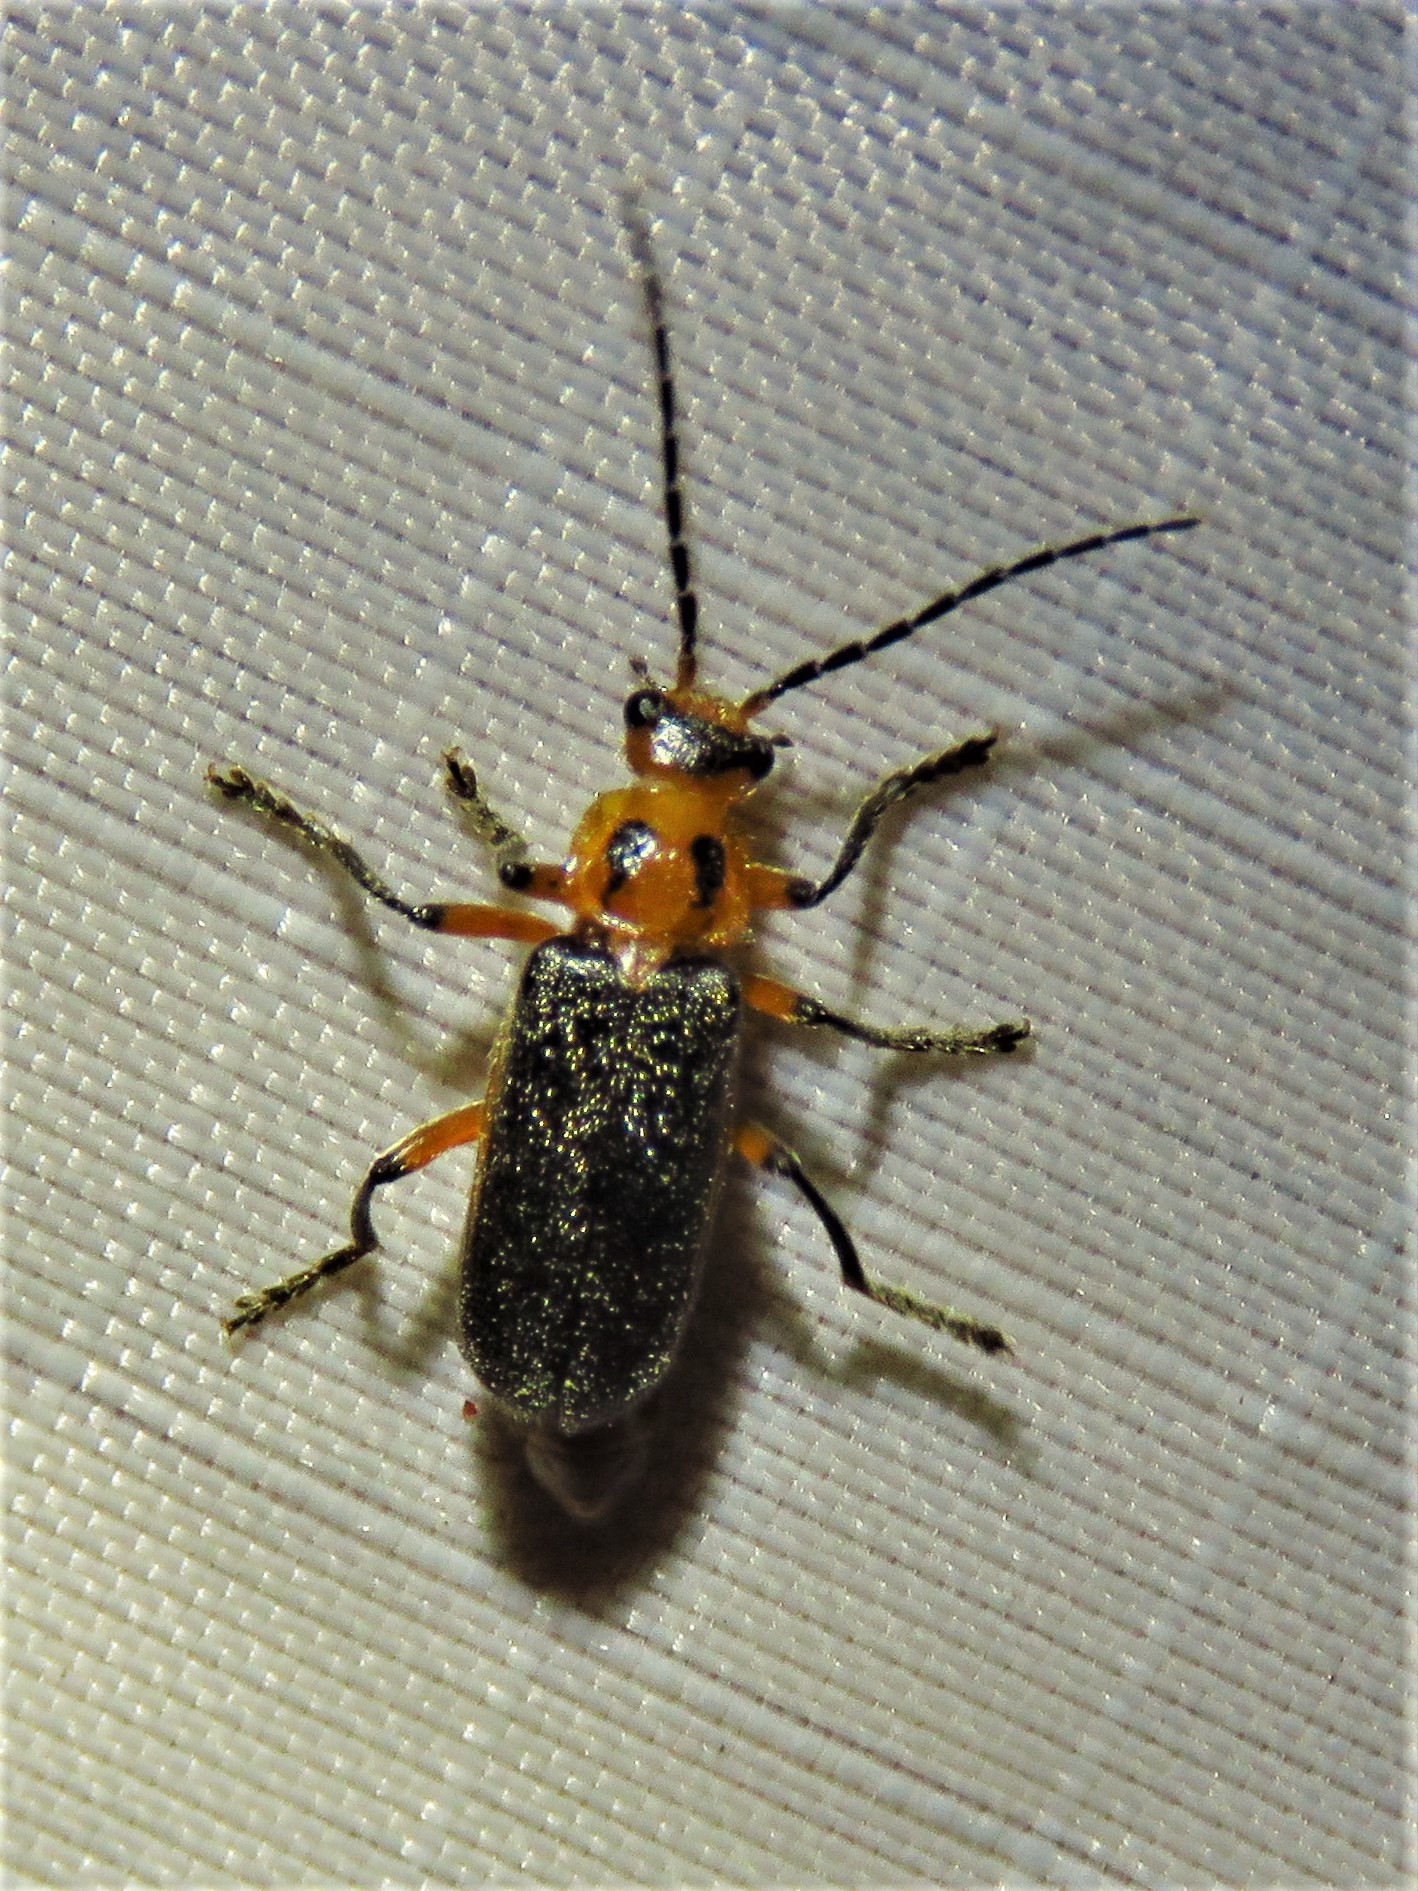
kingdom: Animalia
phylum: Arthropoda
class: Insecta
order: Coleoptera
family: Cantharidae
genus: Atalantycha
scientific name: Atalantycha bilineata
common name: Two-lined leatherwing
